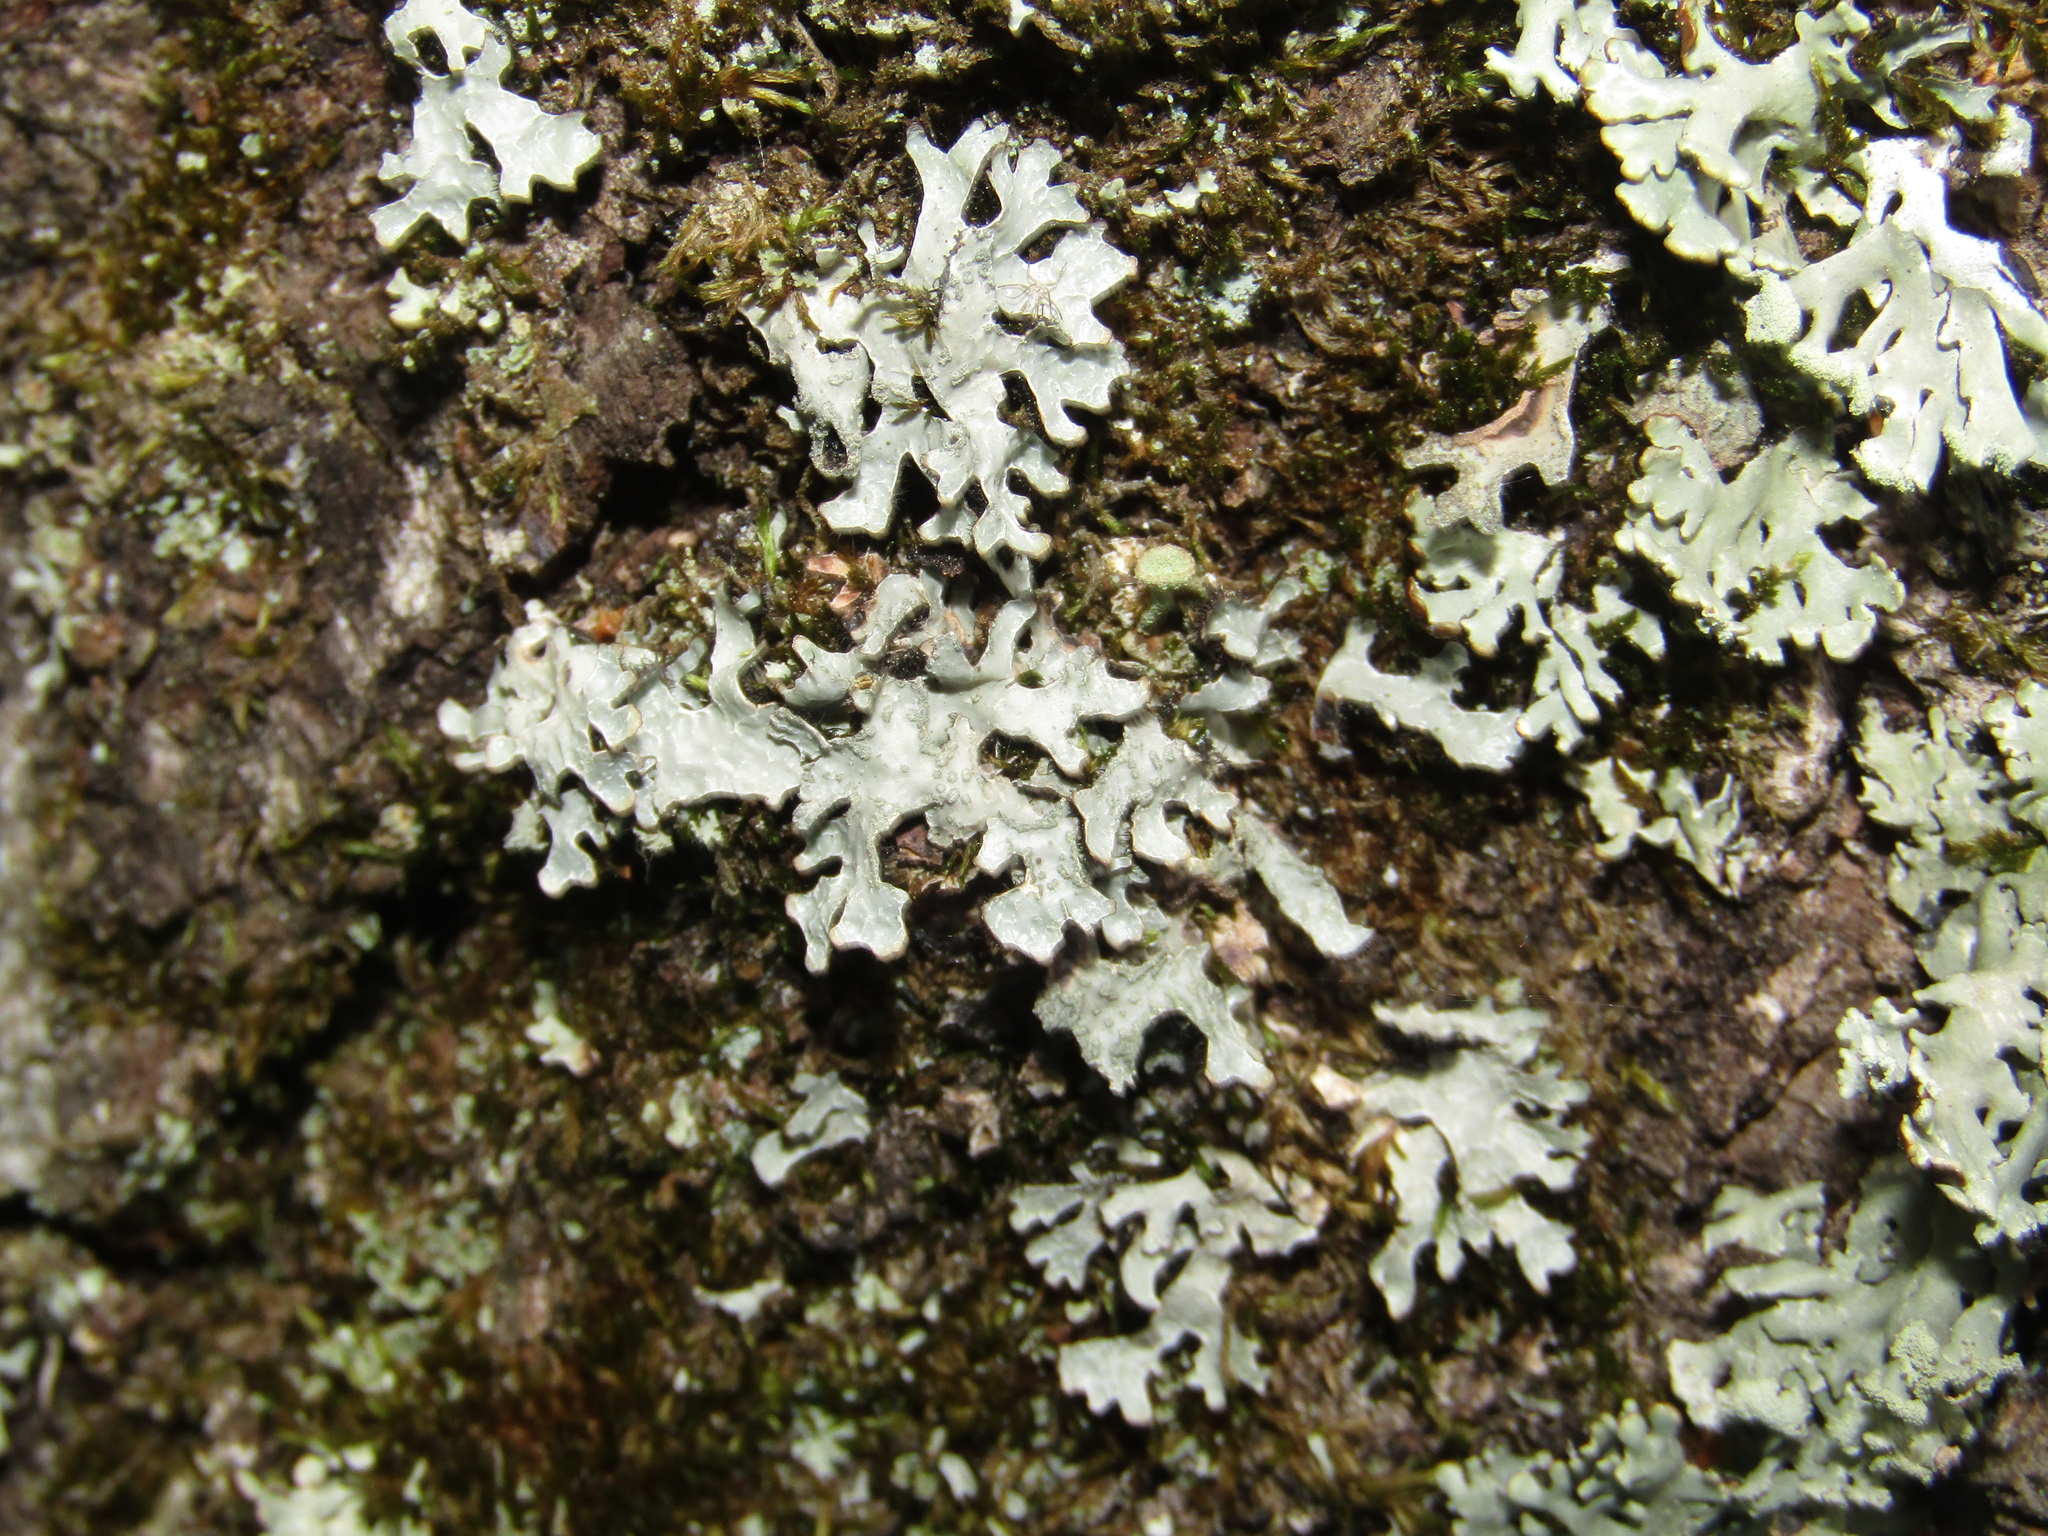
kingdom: Fungi
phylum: Ascomycota
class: Lecanoromycetes
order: Lecanorales
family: Parmeliaceae
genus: Parmelia
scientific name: Parmelia sulcata
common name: Netted shield lichen
